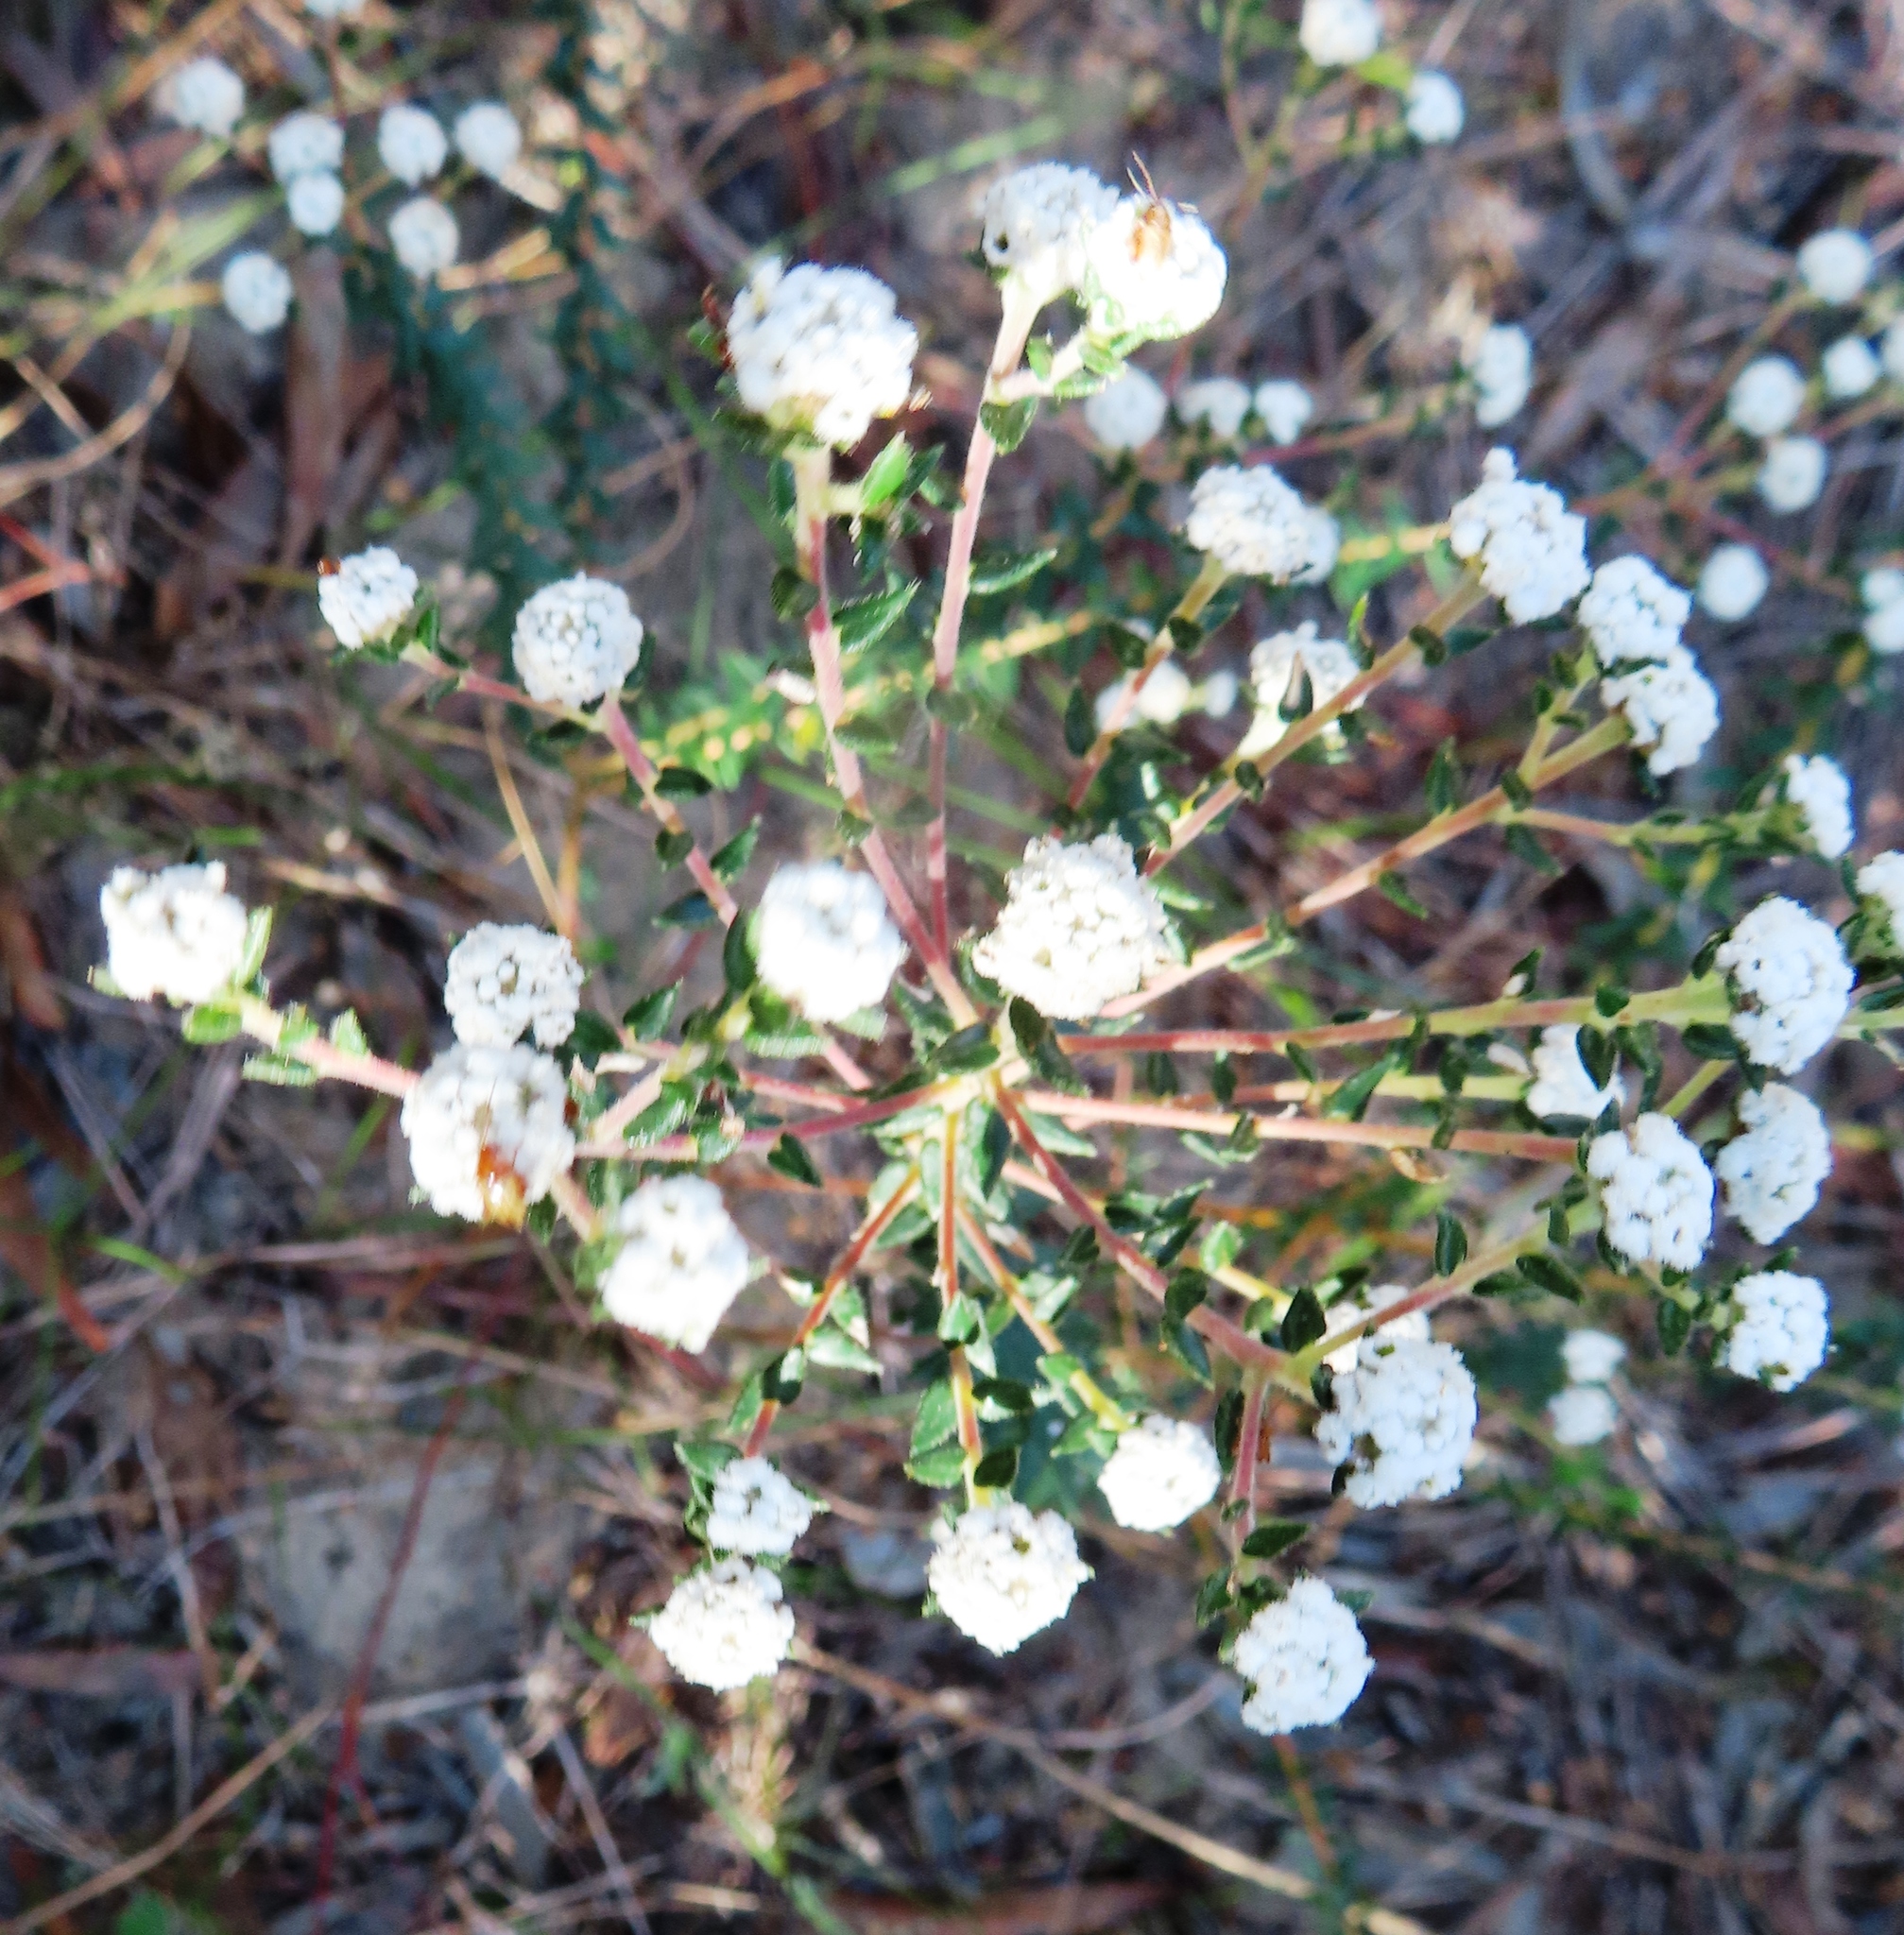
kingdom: Plantae
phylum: Tracheophyta
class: Magnoliopsida
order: Rosales
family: Rhamnaceae
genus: Phylica
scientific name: Phylica ericoides
